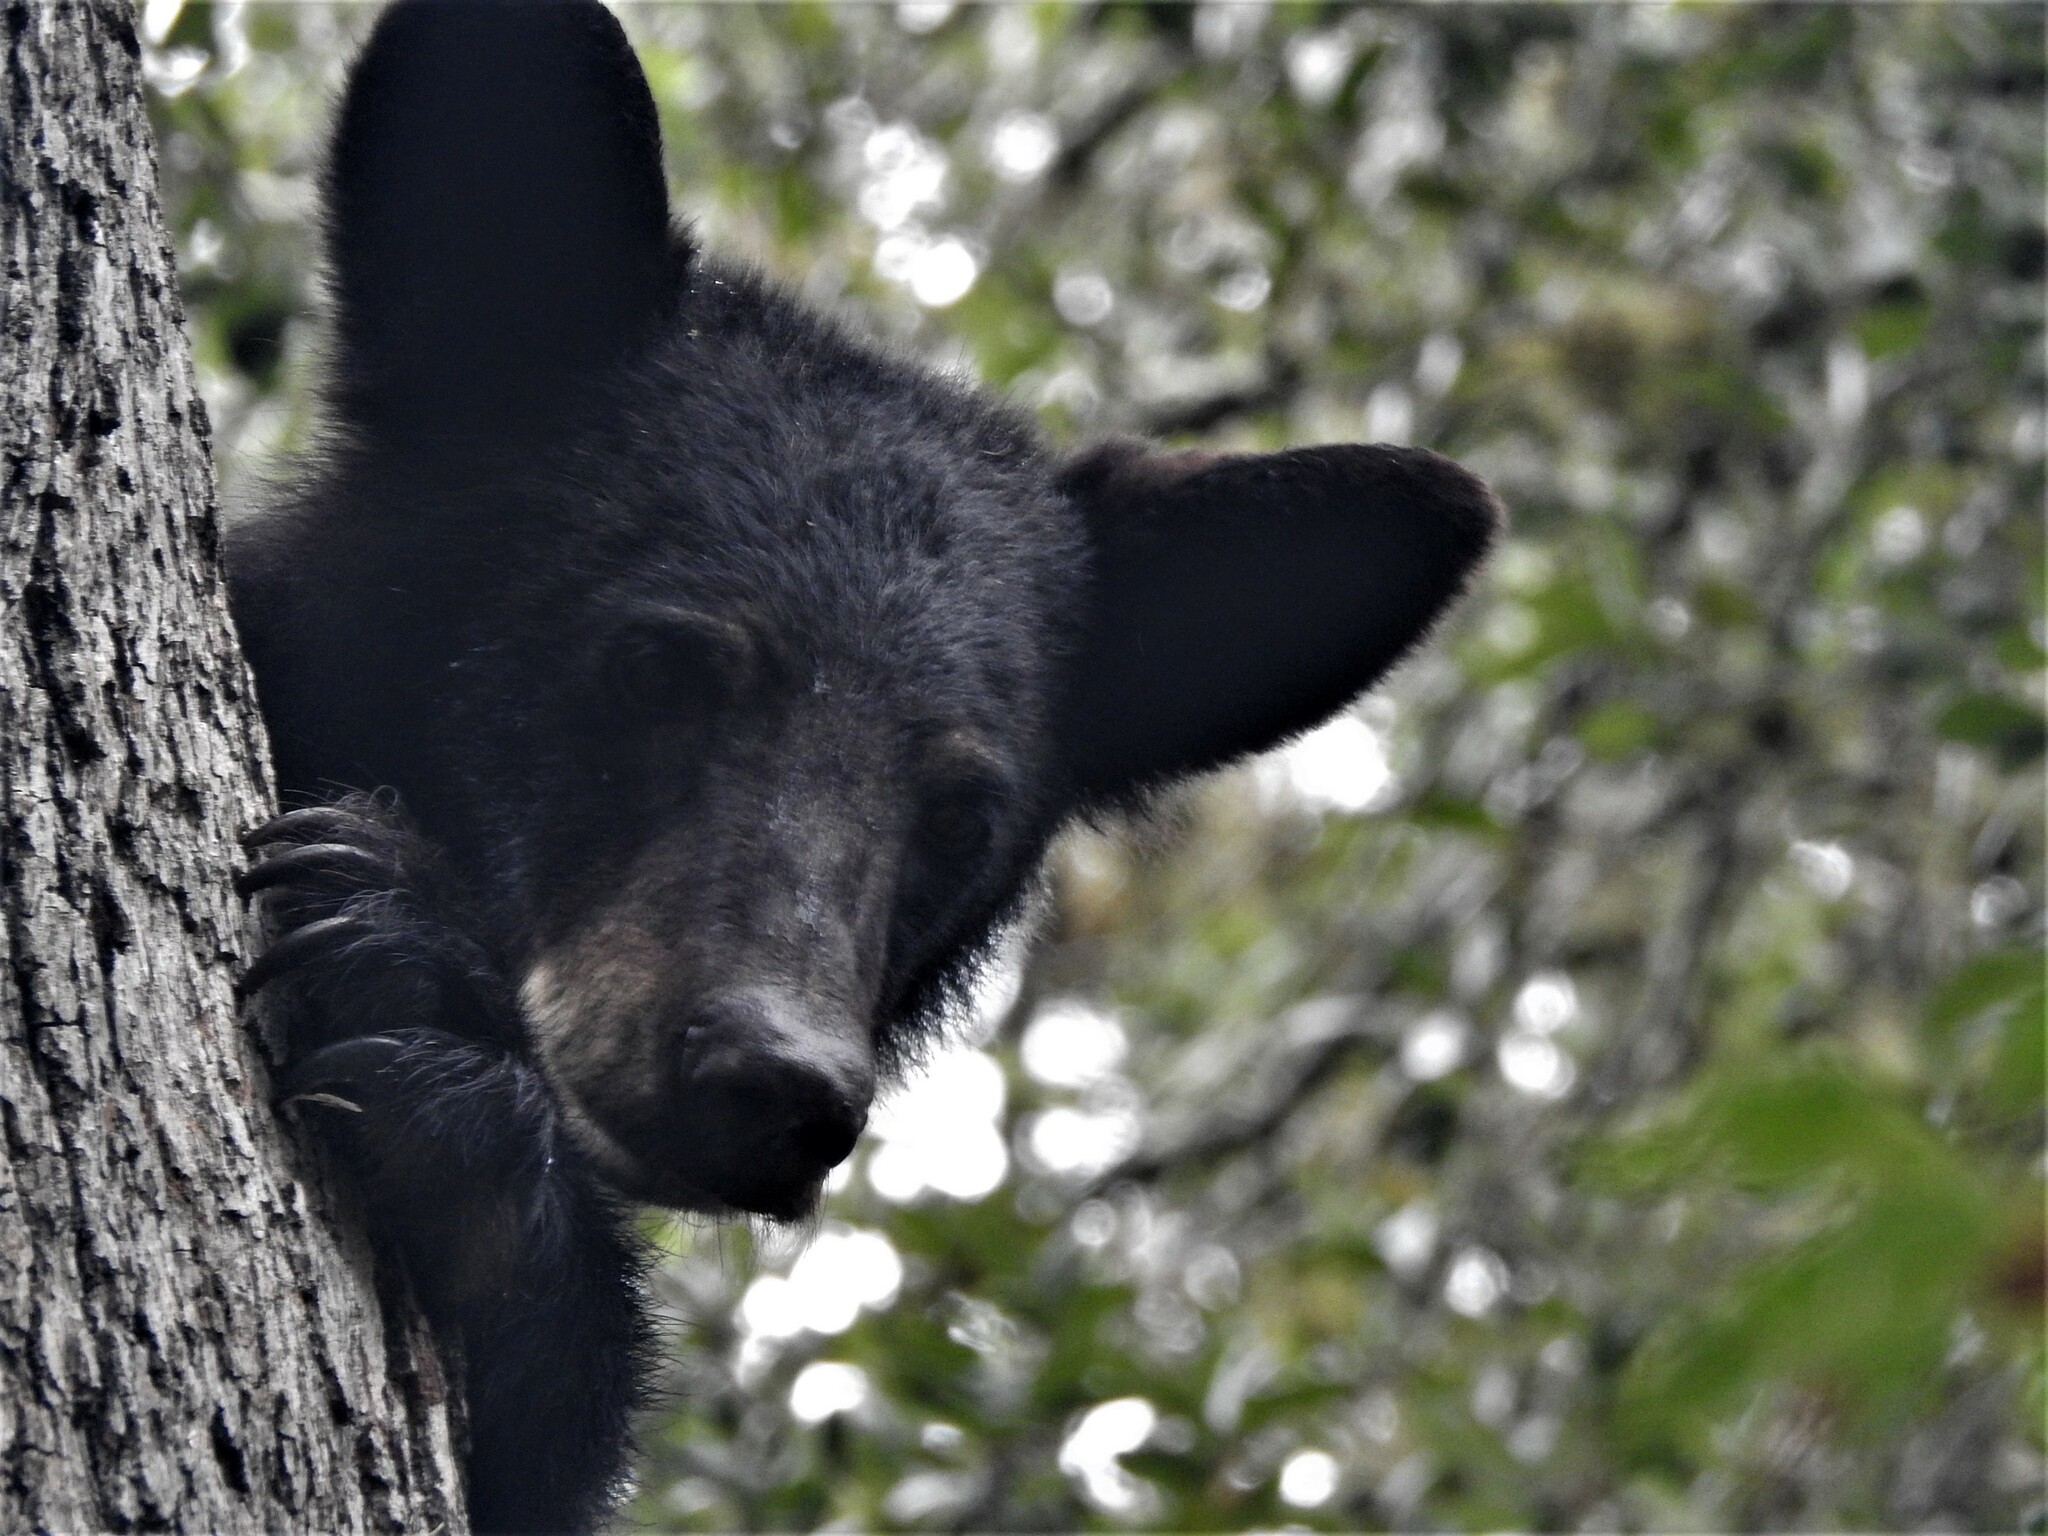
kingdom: Animalia
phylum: Chordata
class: Mammalia
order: Carnivora
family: Ursidae
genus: Ursus
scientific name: Ursus americanus
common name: American black bear
